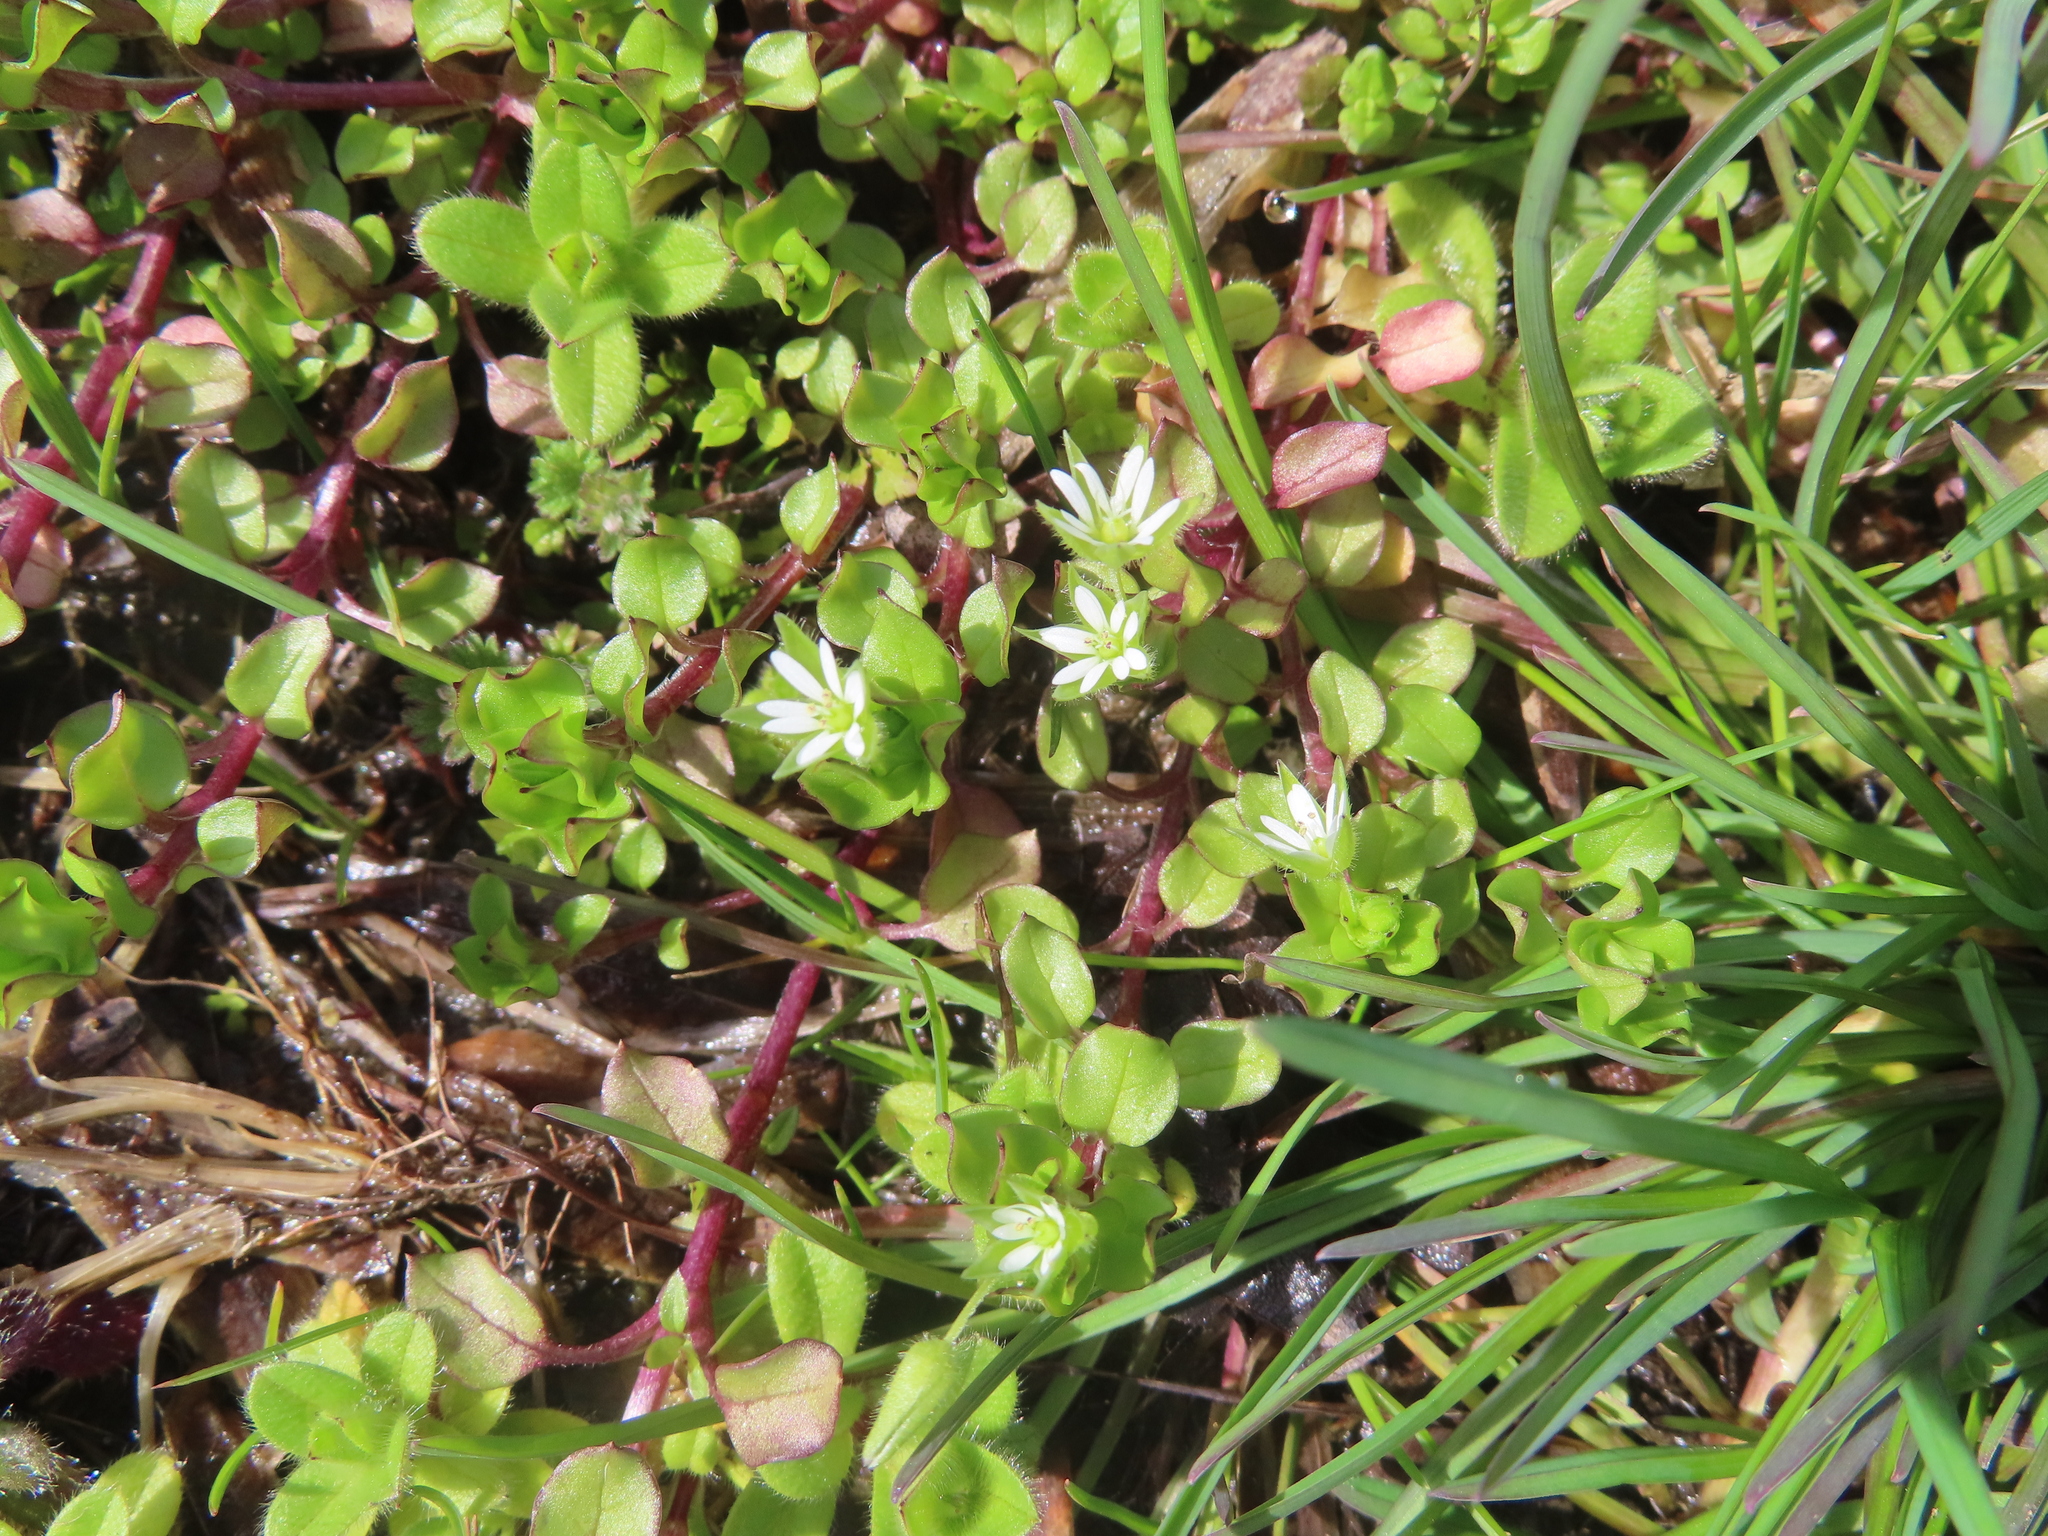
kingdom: Plantae
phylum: Tracheophyta
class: Magnoliopsida
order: Caryophyllales
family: Caryophyllaceae
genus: Stellaria
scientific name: Stellaria media
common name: Common chickweed
